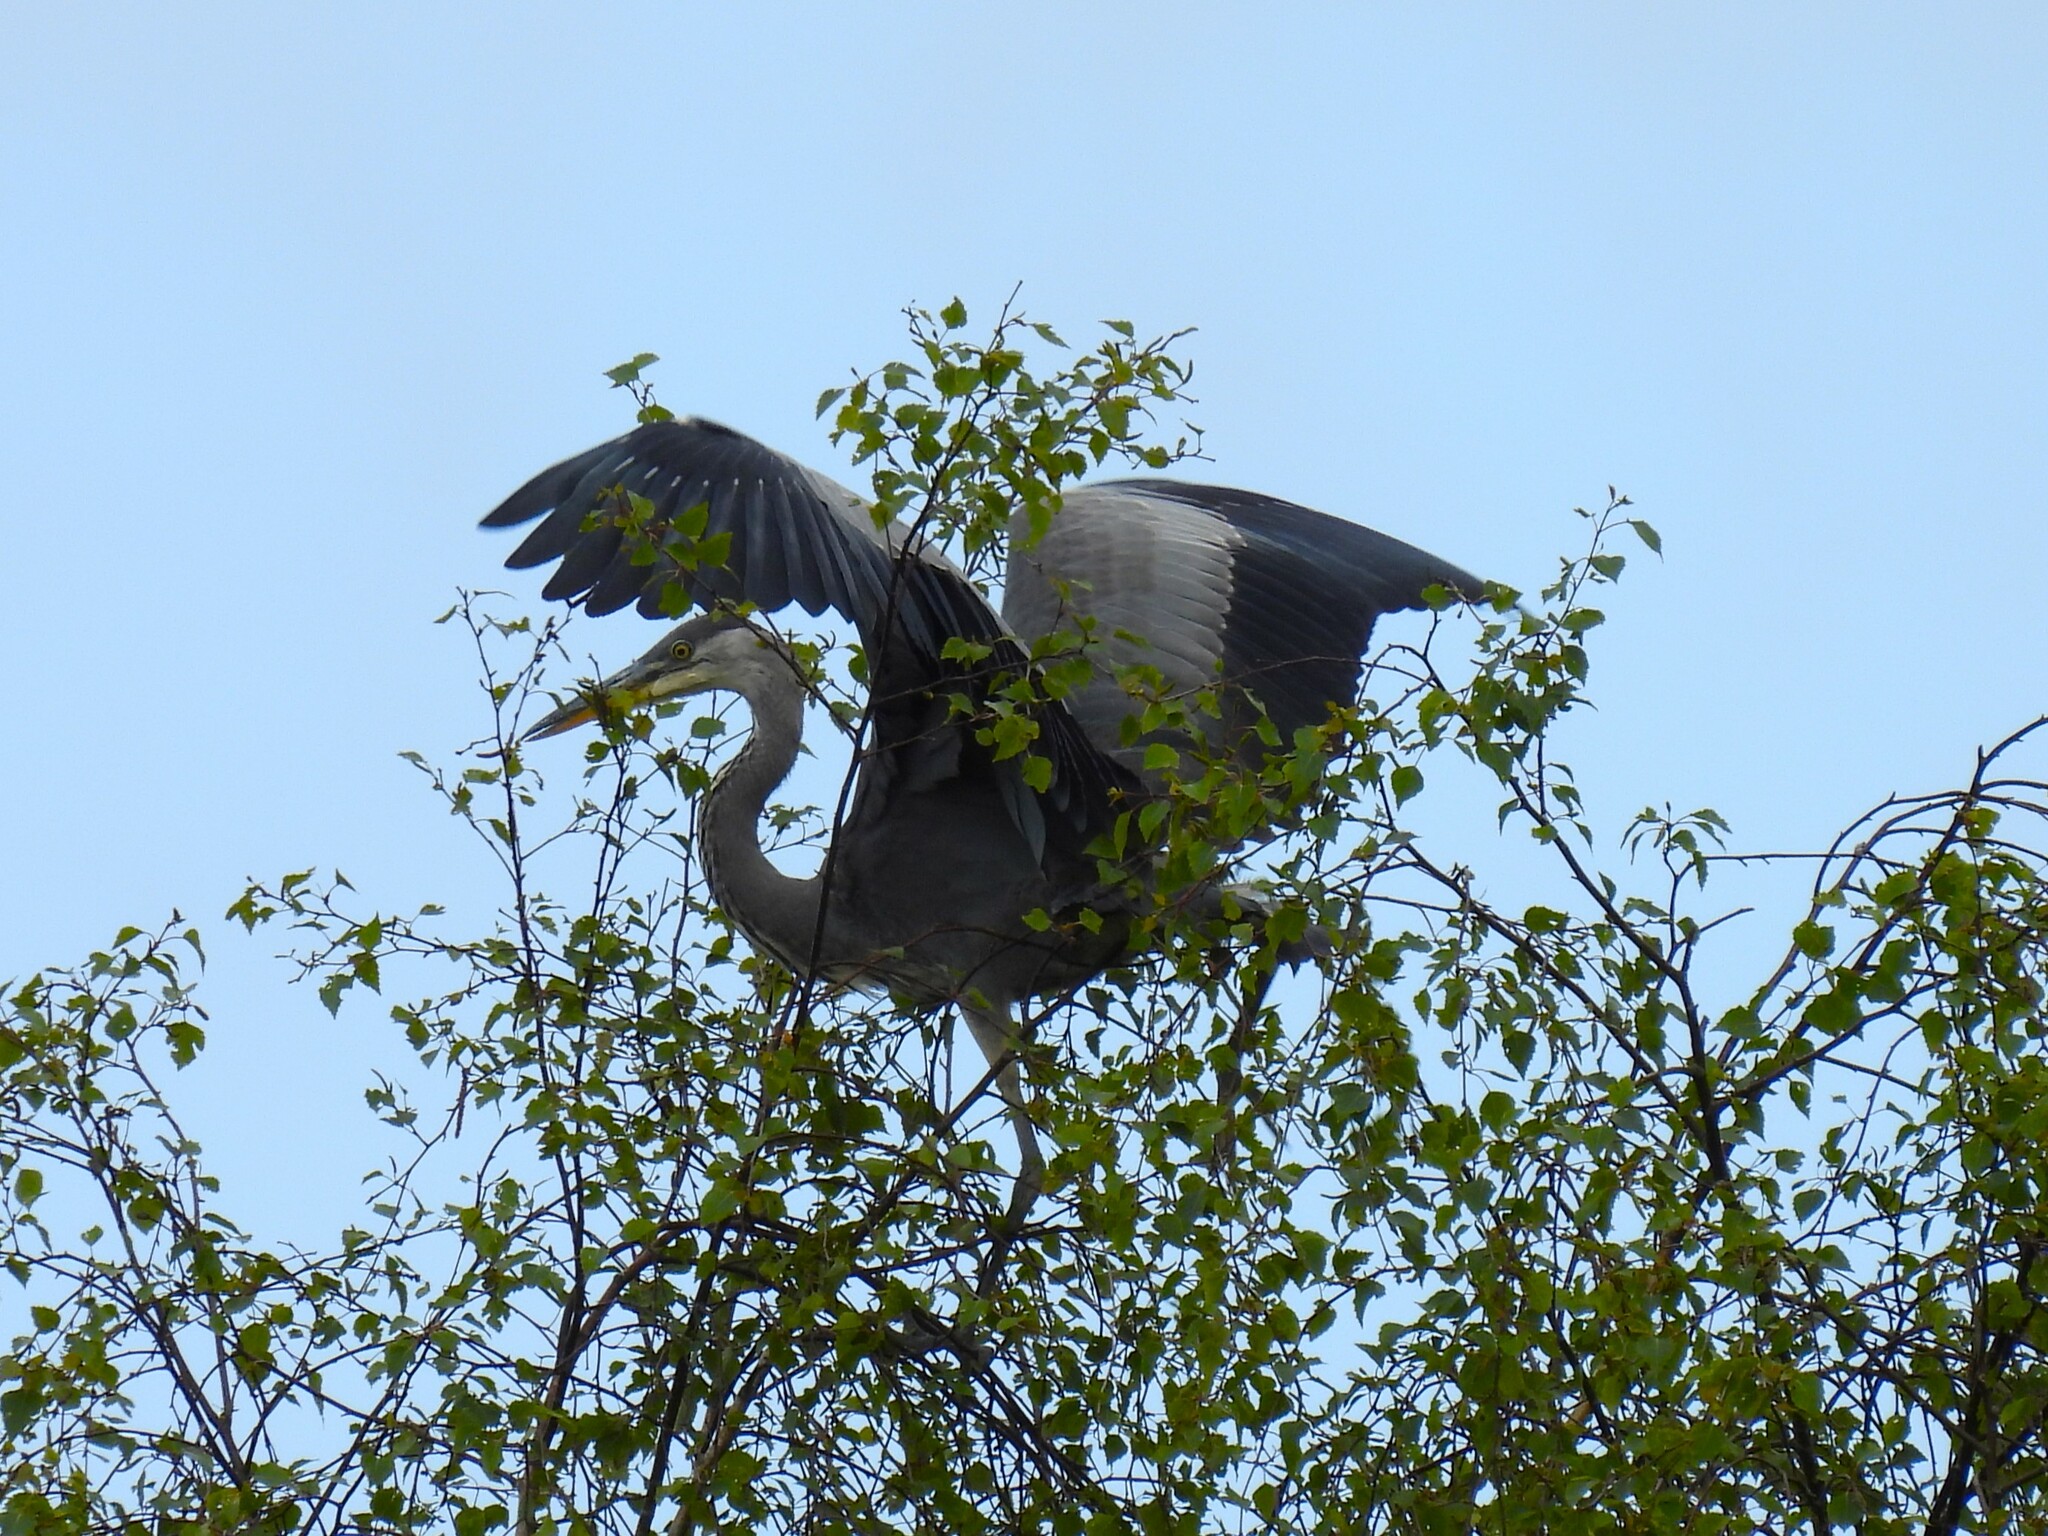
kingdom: Animalia
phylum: Chordata
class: Aves
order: Pelecaniformes
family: Ardeidae
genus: Ardea
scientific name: Ardea cinerea
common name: Grey heron
